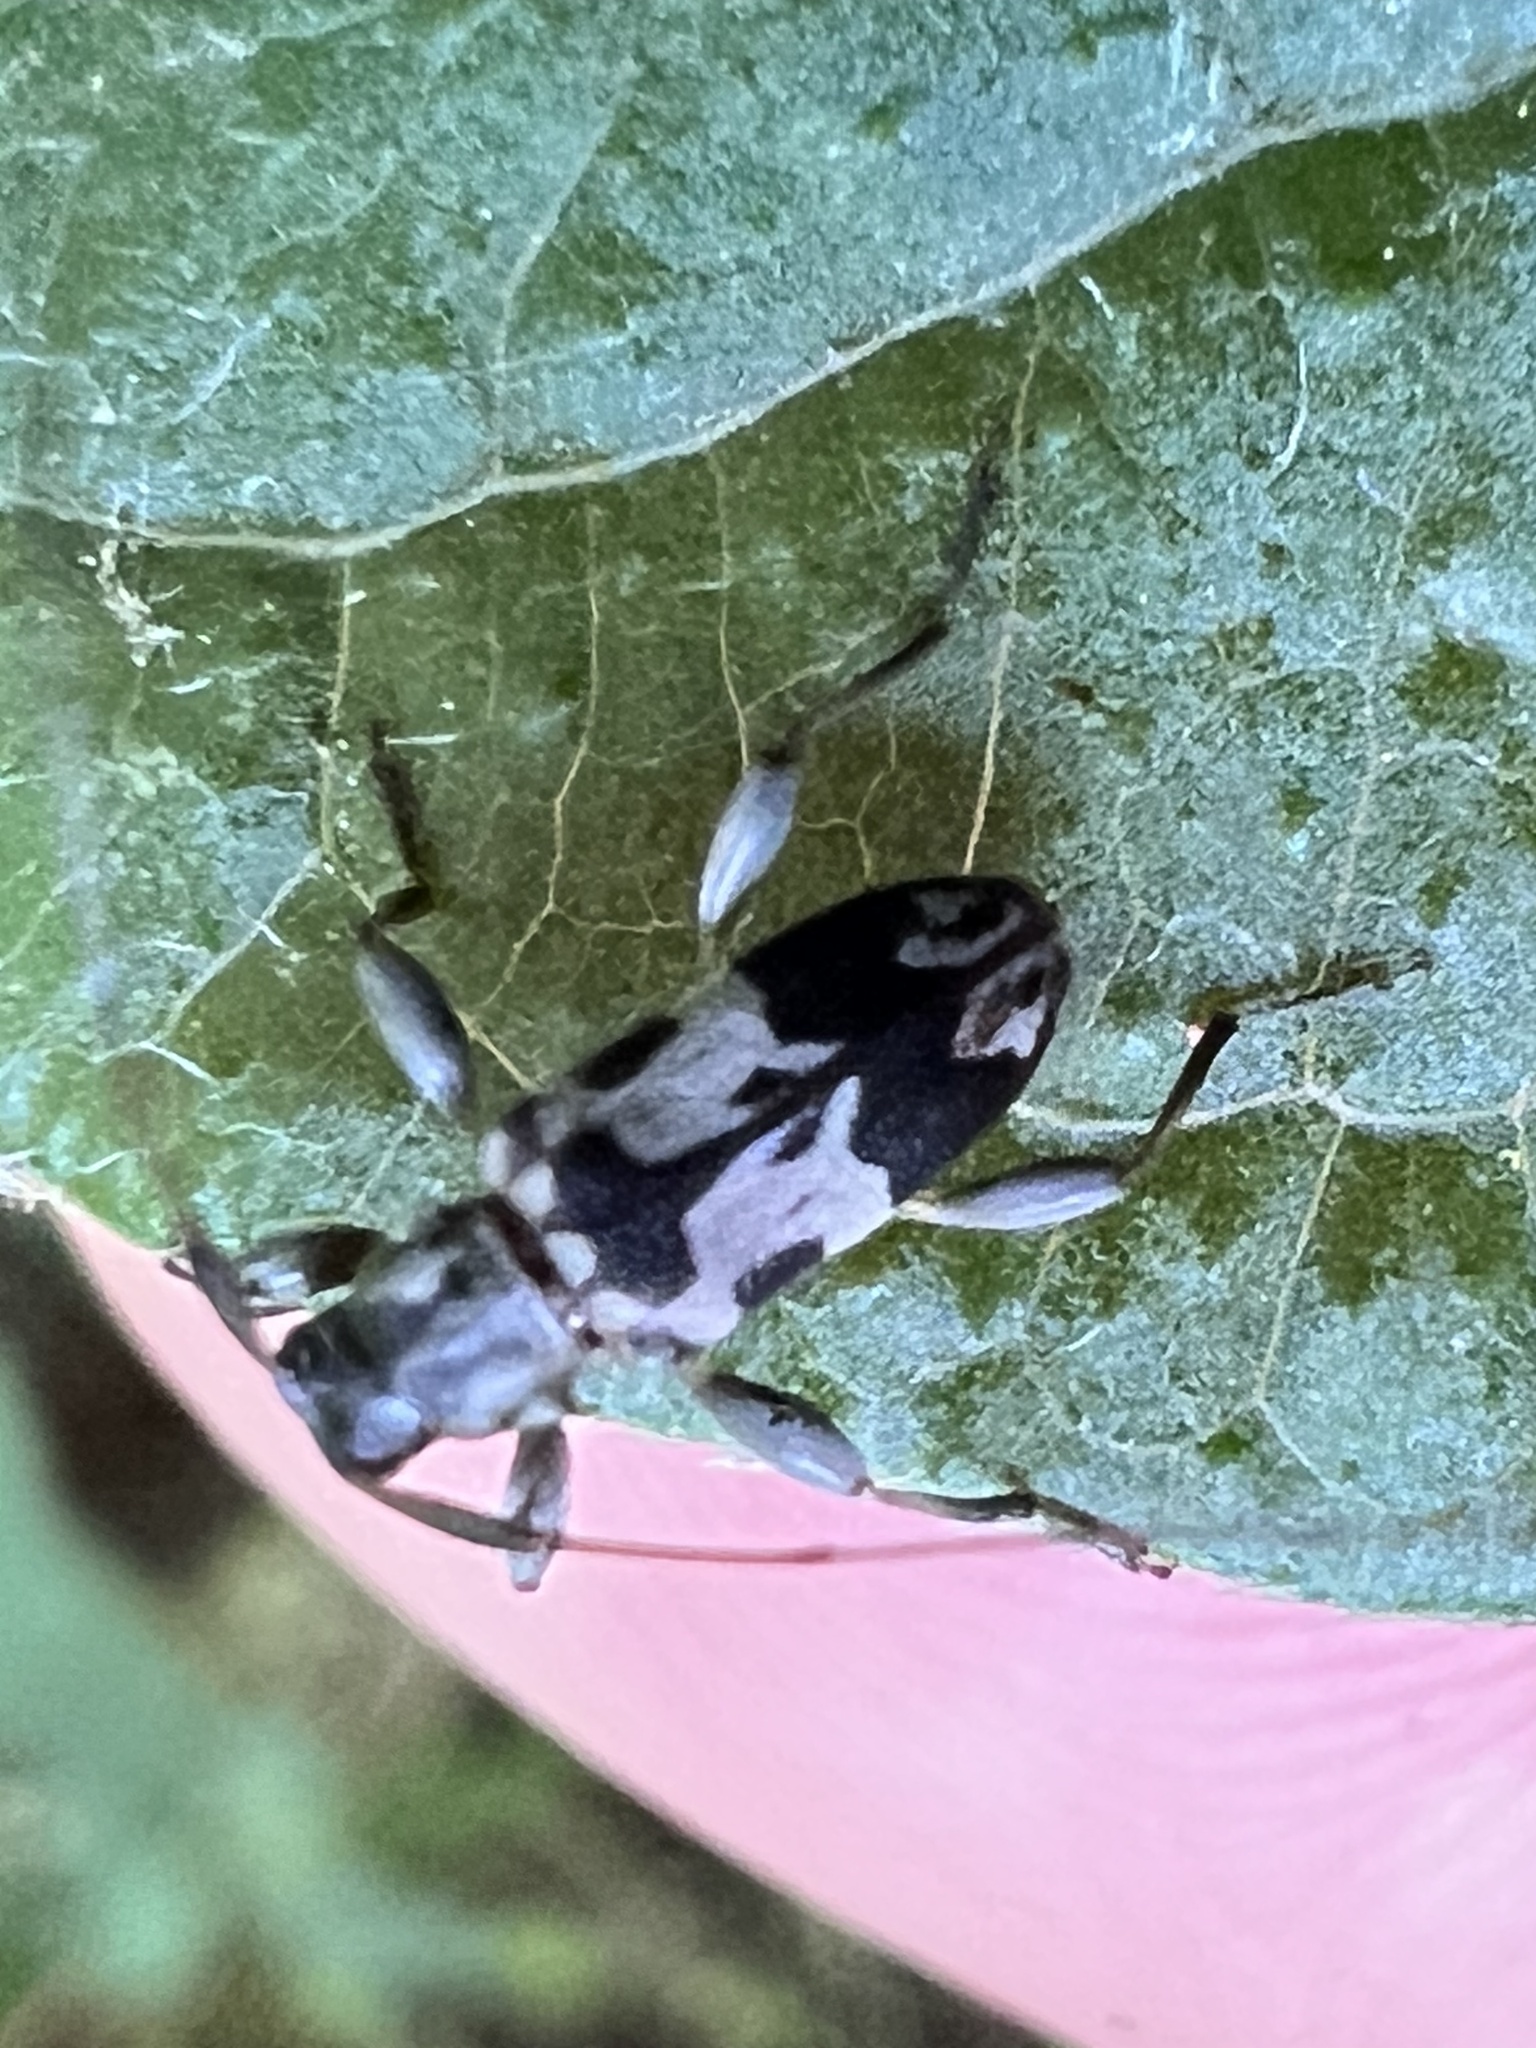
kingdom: Animalia
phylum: Arthropoda
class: Insecta
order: Coleoptera
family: Cerambycidae
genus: Urgleptes
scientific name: Urgleptes querci
